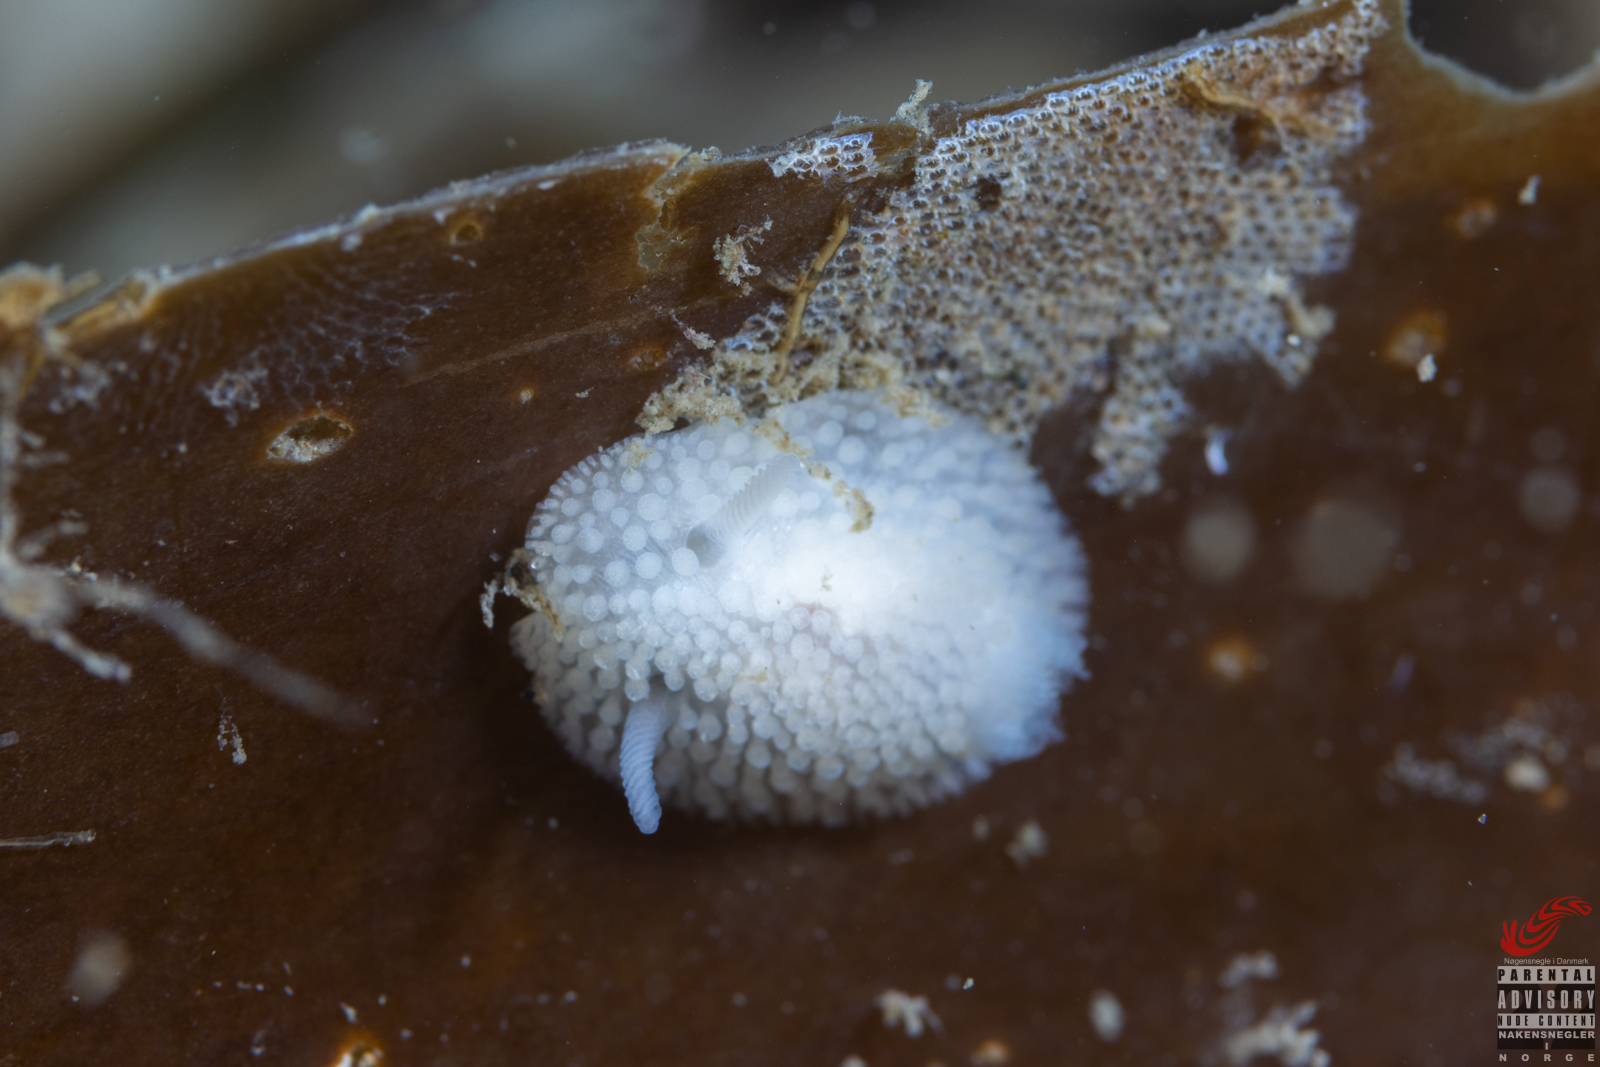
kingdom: Animalia
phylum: Mollusca
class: Gastropoda
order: Nudibranchia
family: Onchidorididae
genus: Onchidoris
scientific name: Onchidoris muricata
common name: Rough doris
